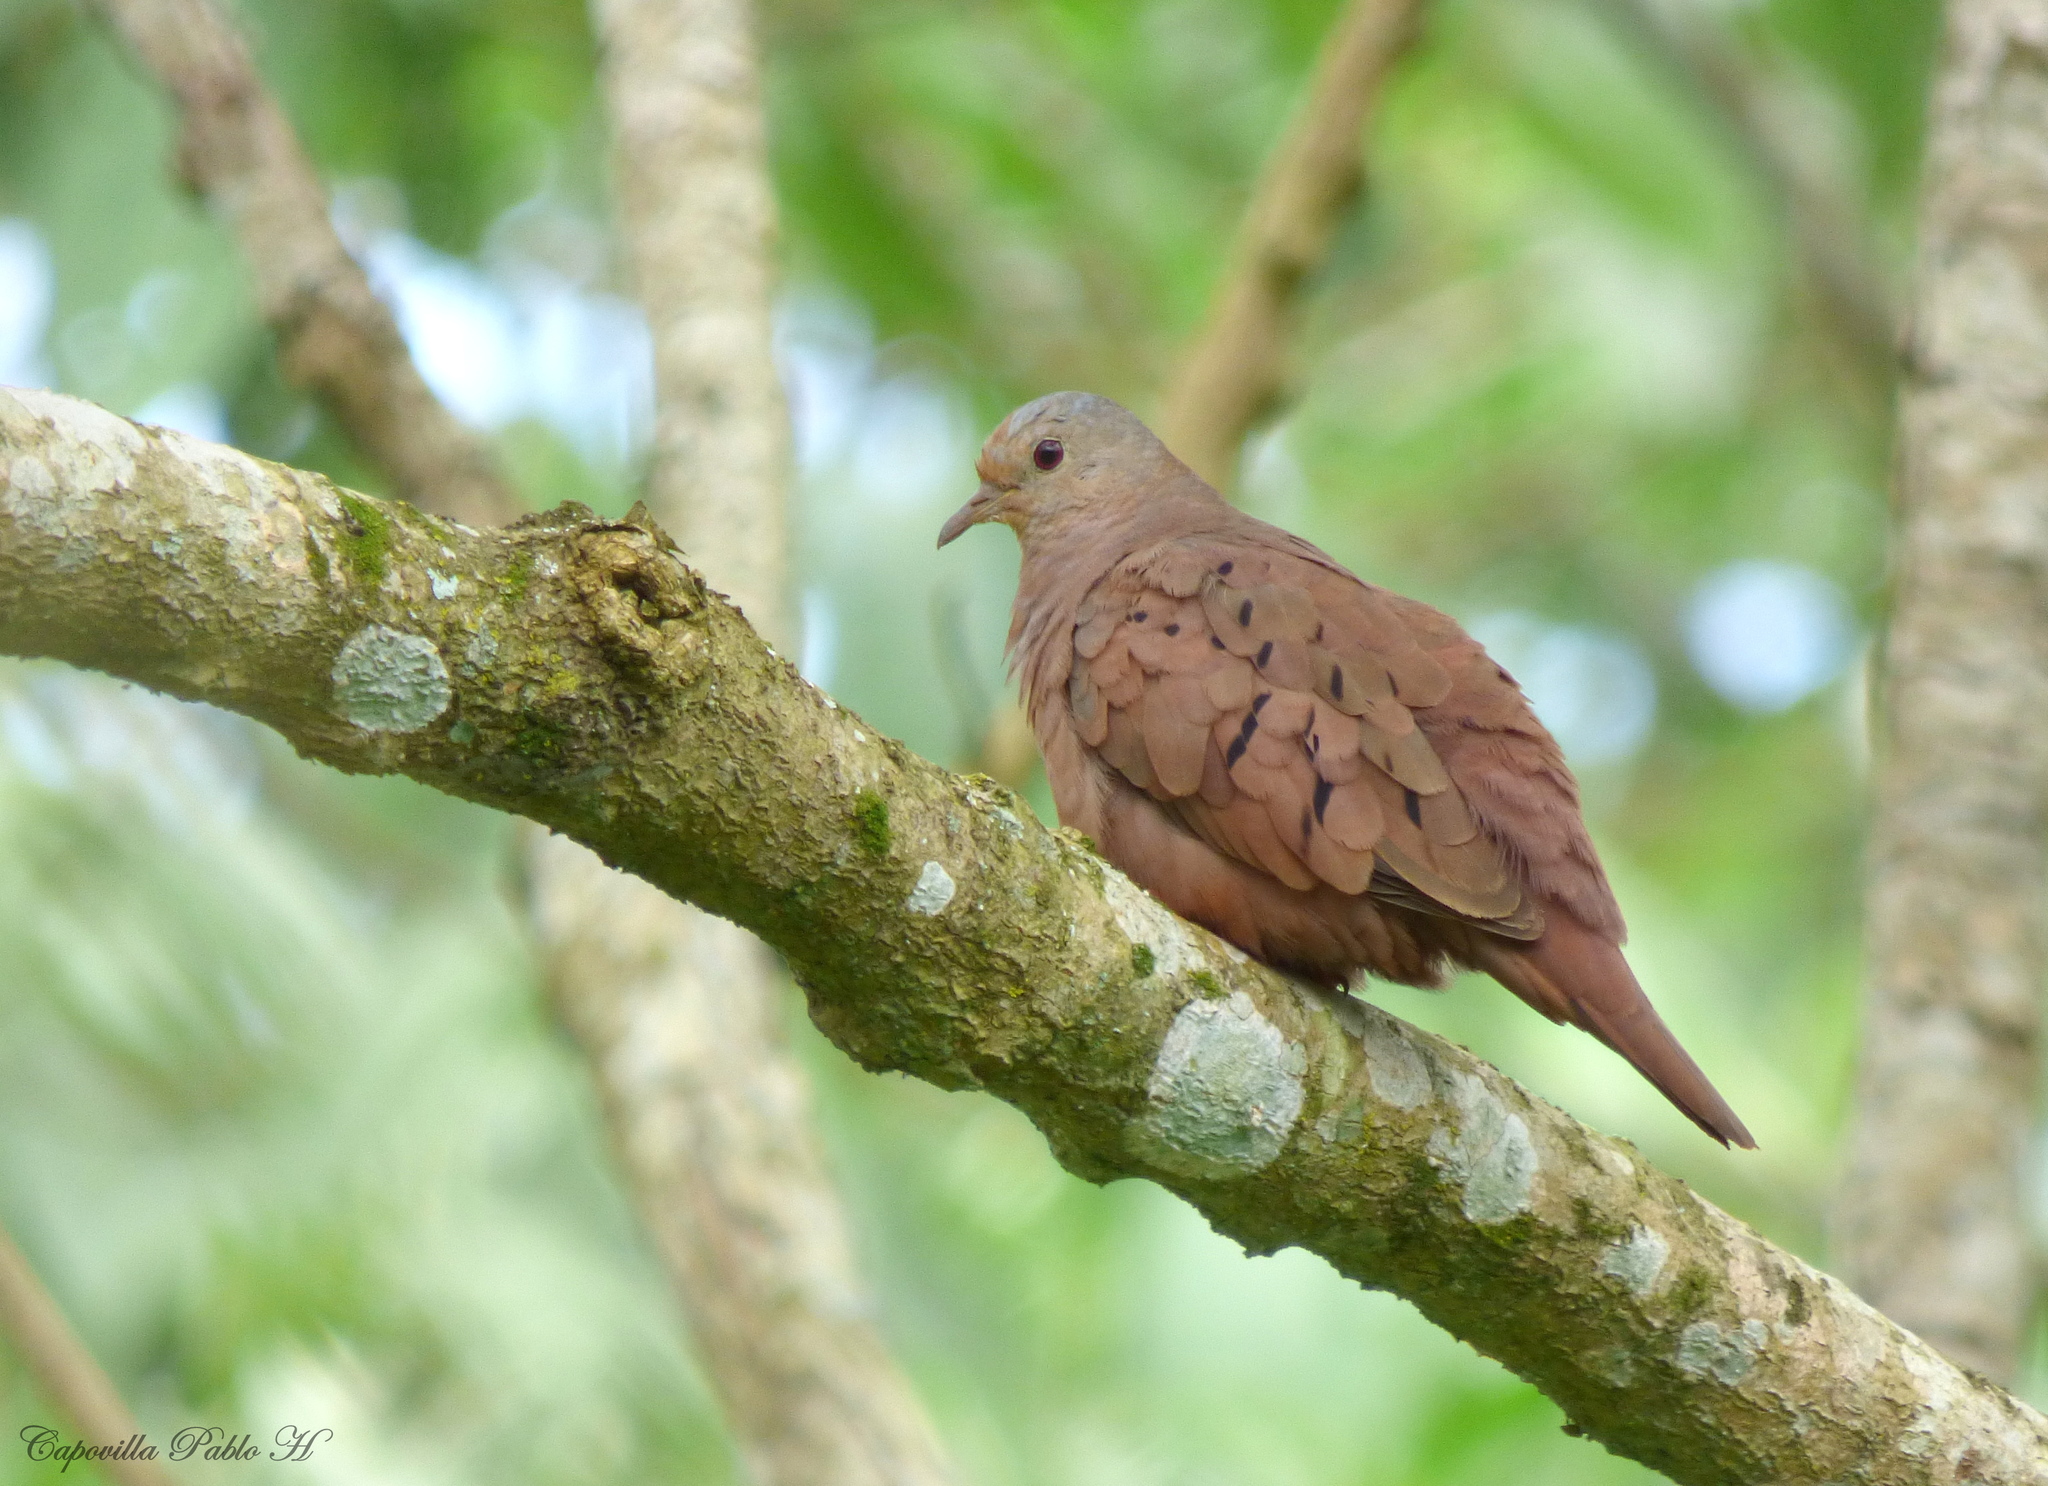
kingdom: Animalia
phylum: Chordata
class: Aves
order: Columbiformes
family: Columbidae
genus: Columbina
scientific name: Columbina talpacoti
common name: Ruddy ground dove
